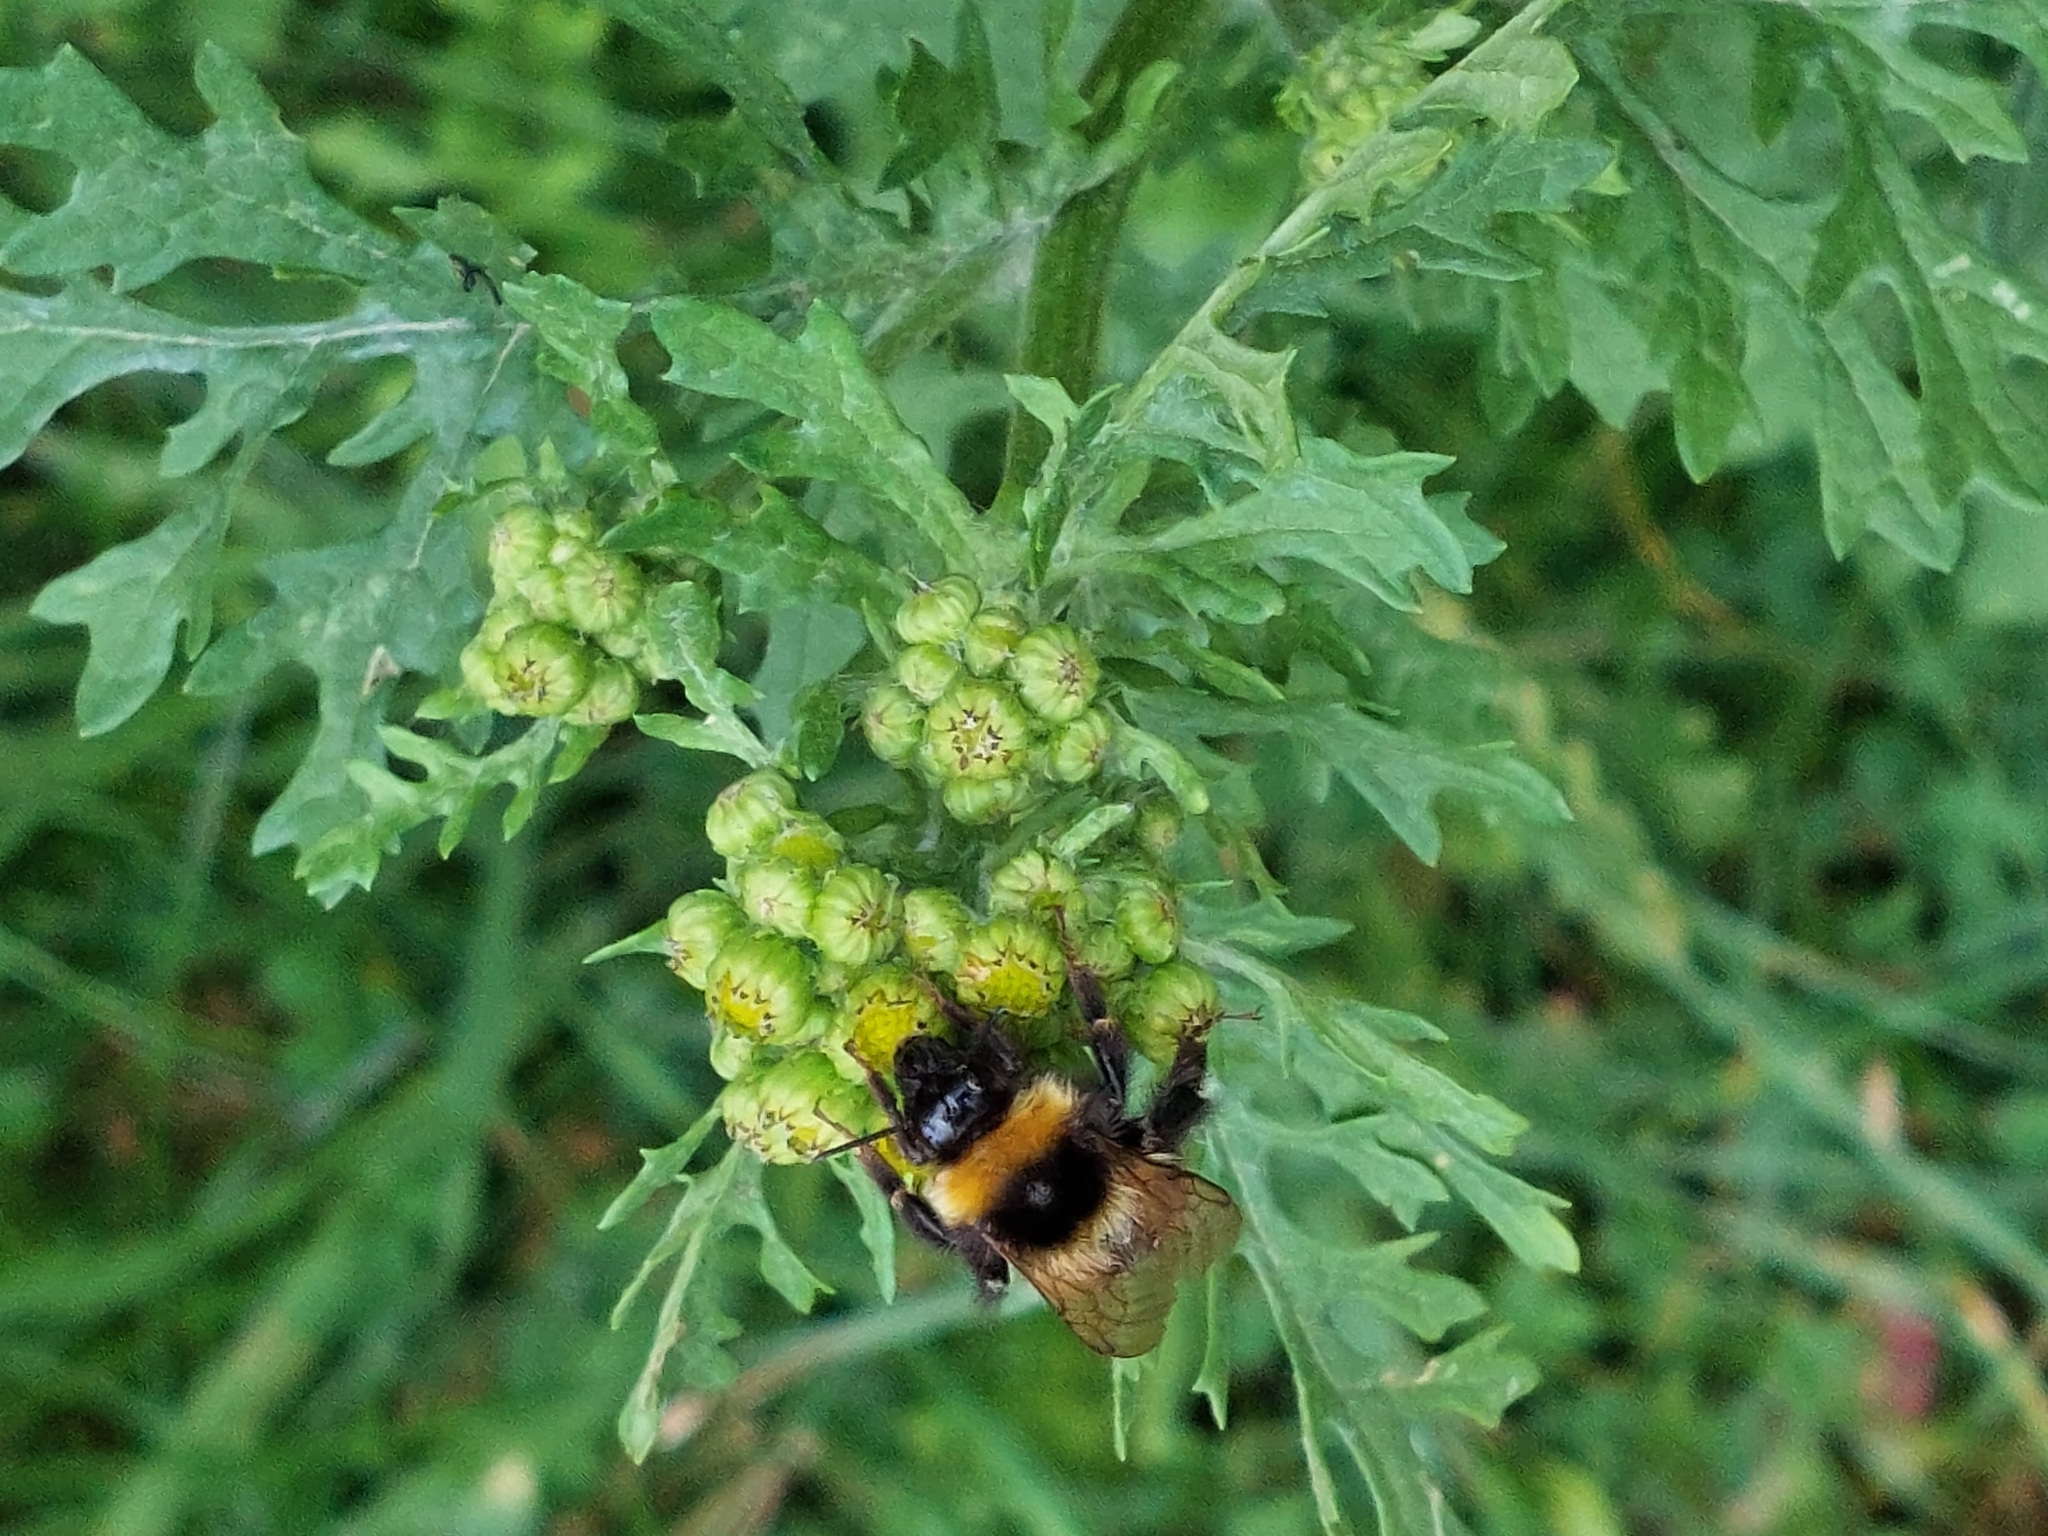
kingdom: Animalia
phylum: Arthropoda
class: Insecta
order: Hymenoptera
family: Apidae
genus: Bombus
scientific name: Bombus hortorum
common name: Garden bumblebee
